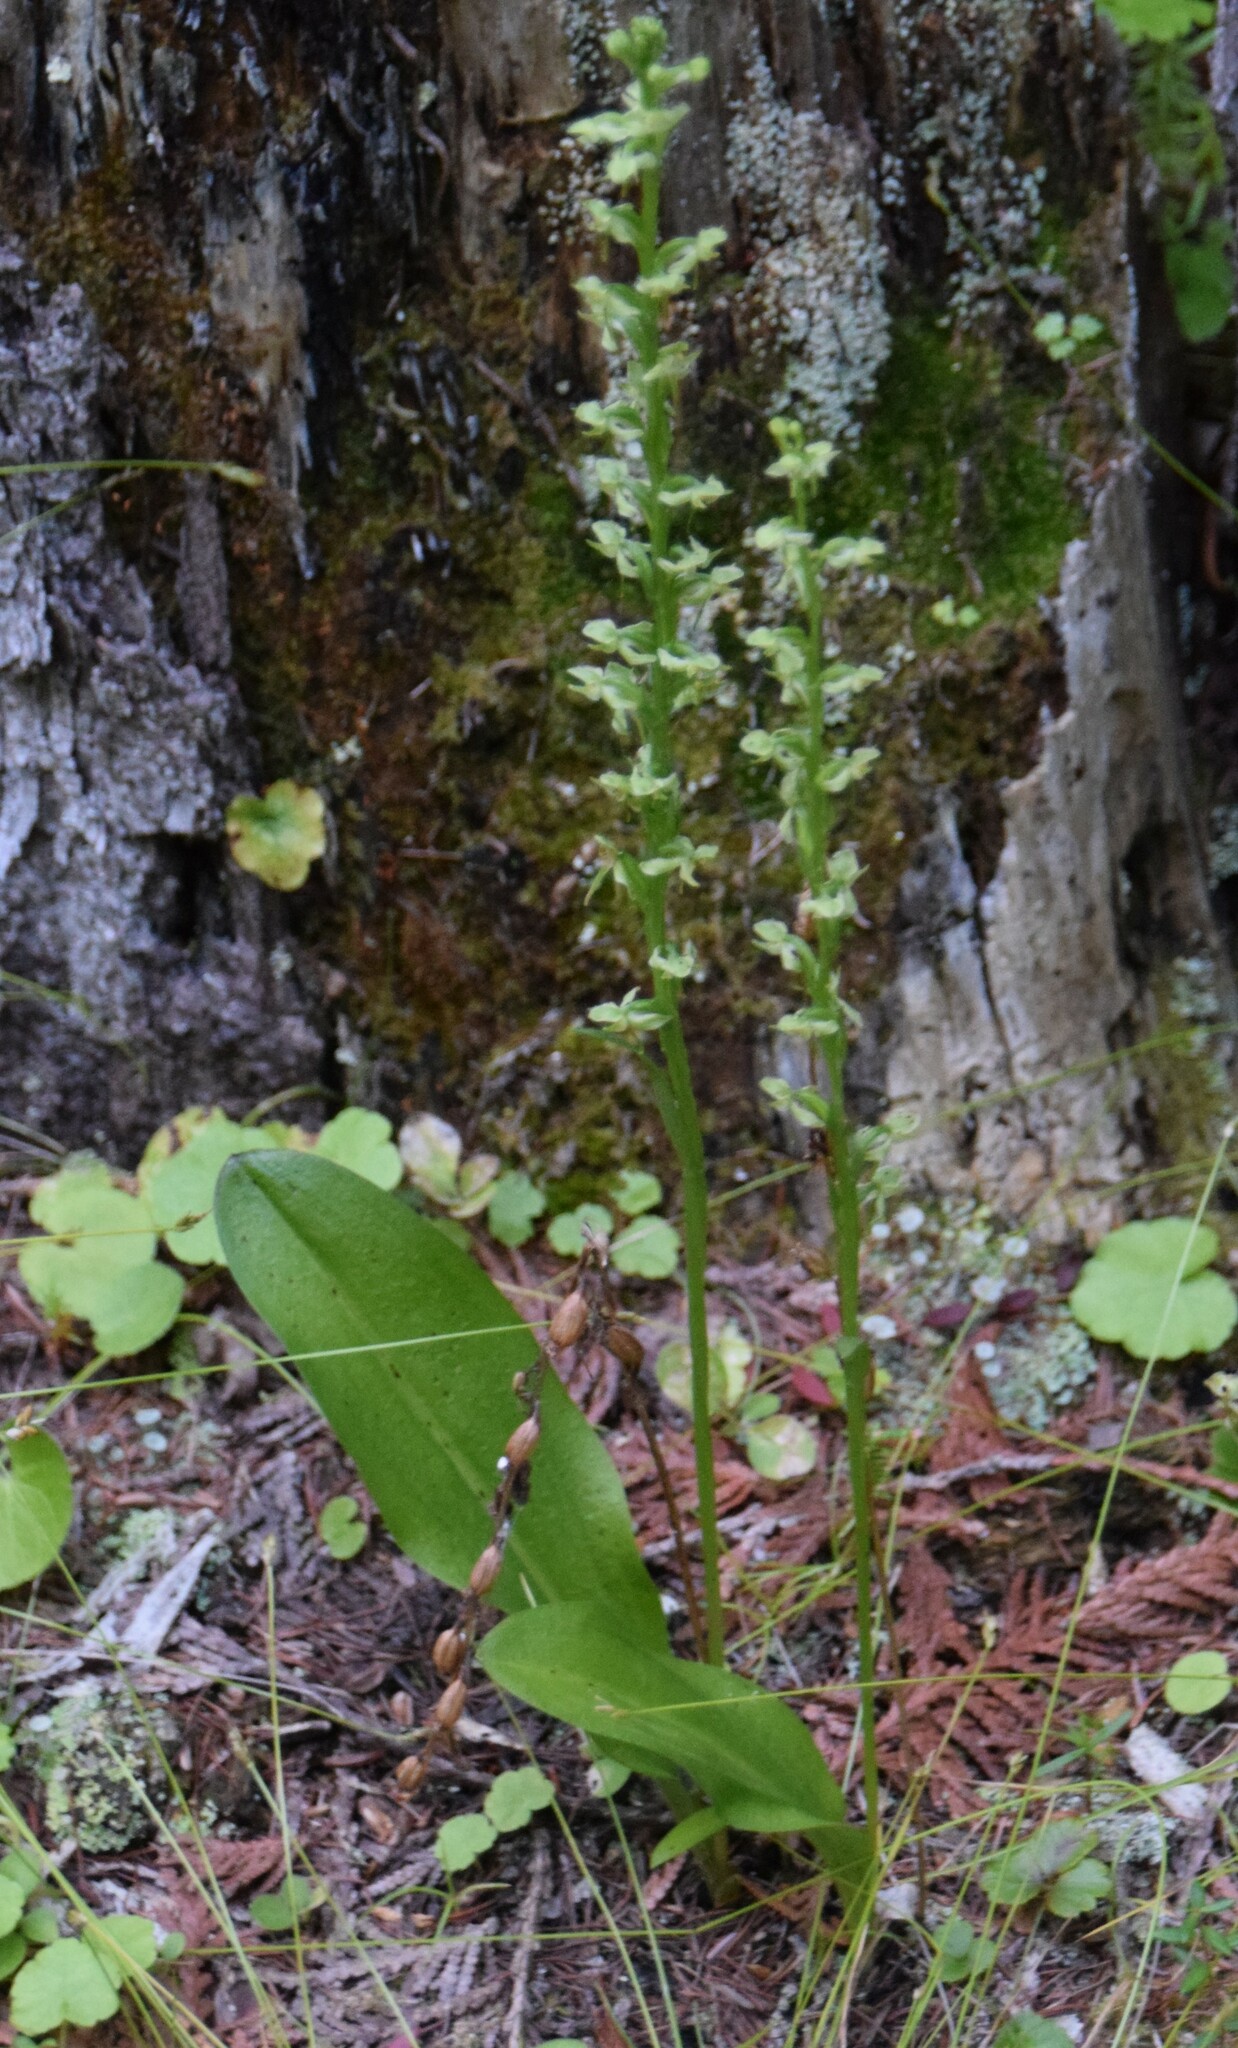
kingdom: Plantae
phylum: Tracheophyta
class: Liliopsida
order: Asparagales
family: Orchidaceae
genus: Platanthera
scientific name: Platanthera obtusata
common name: Blunt bog orchid
